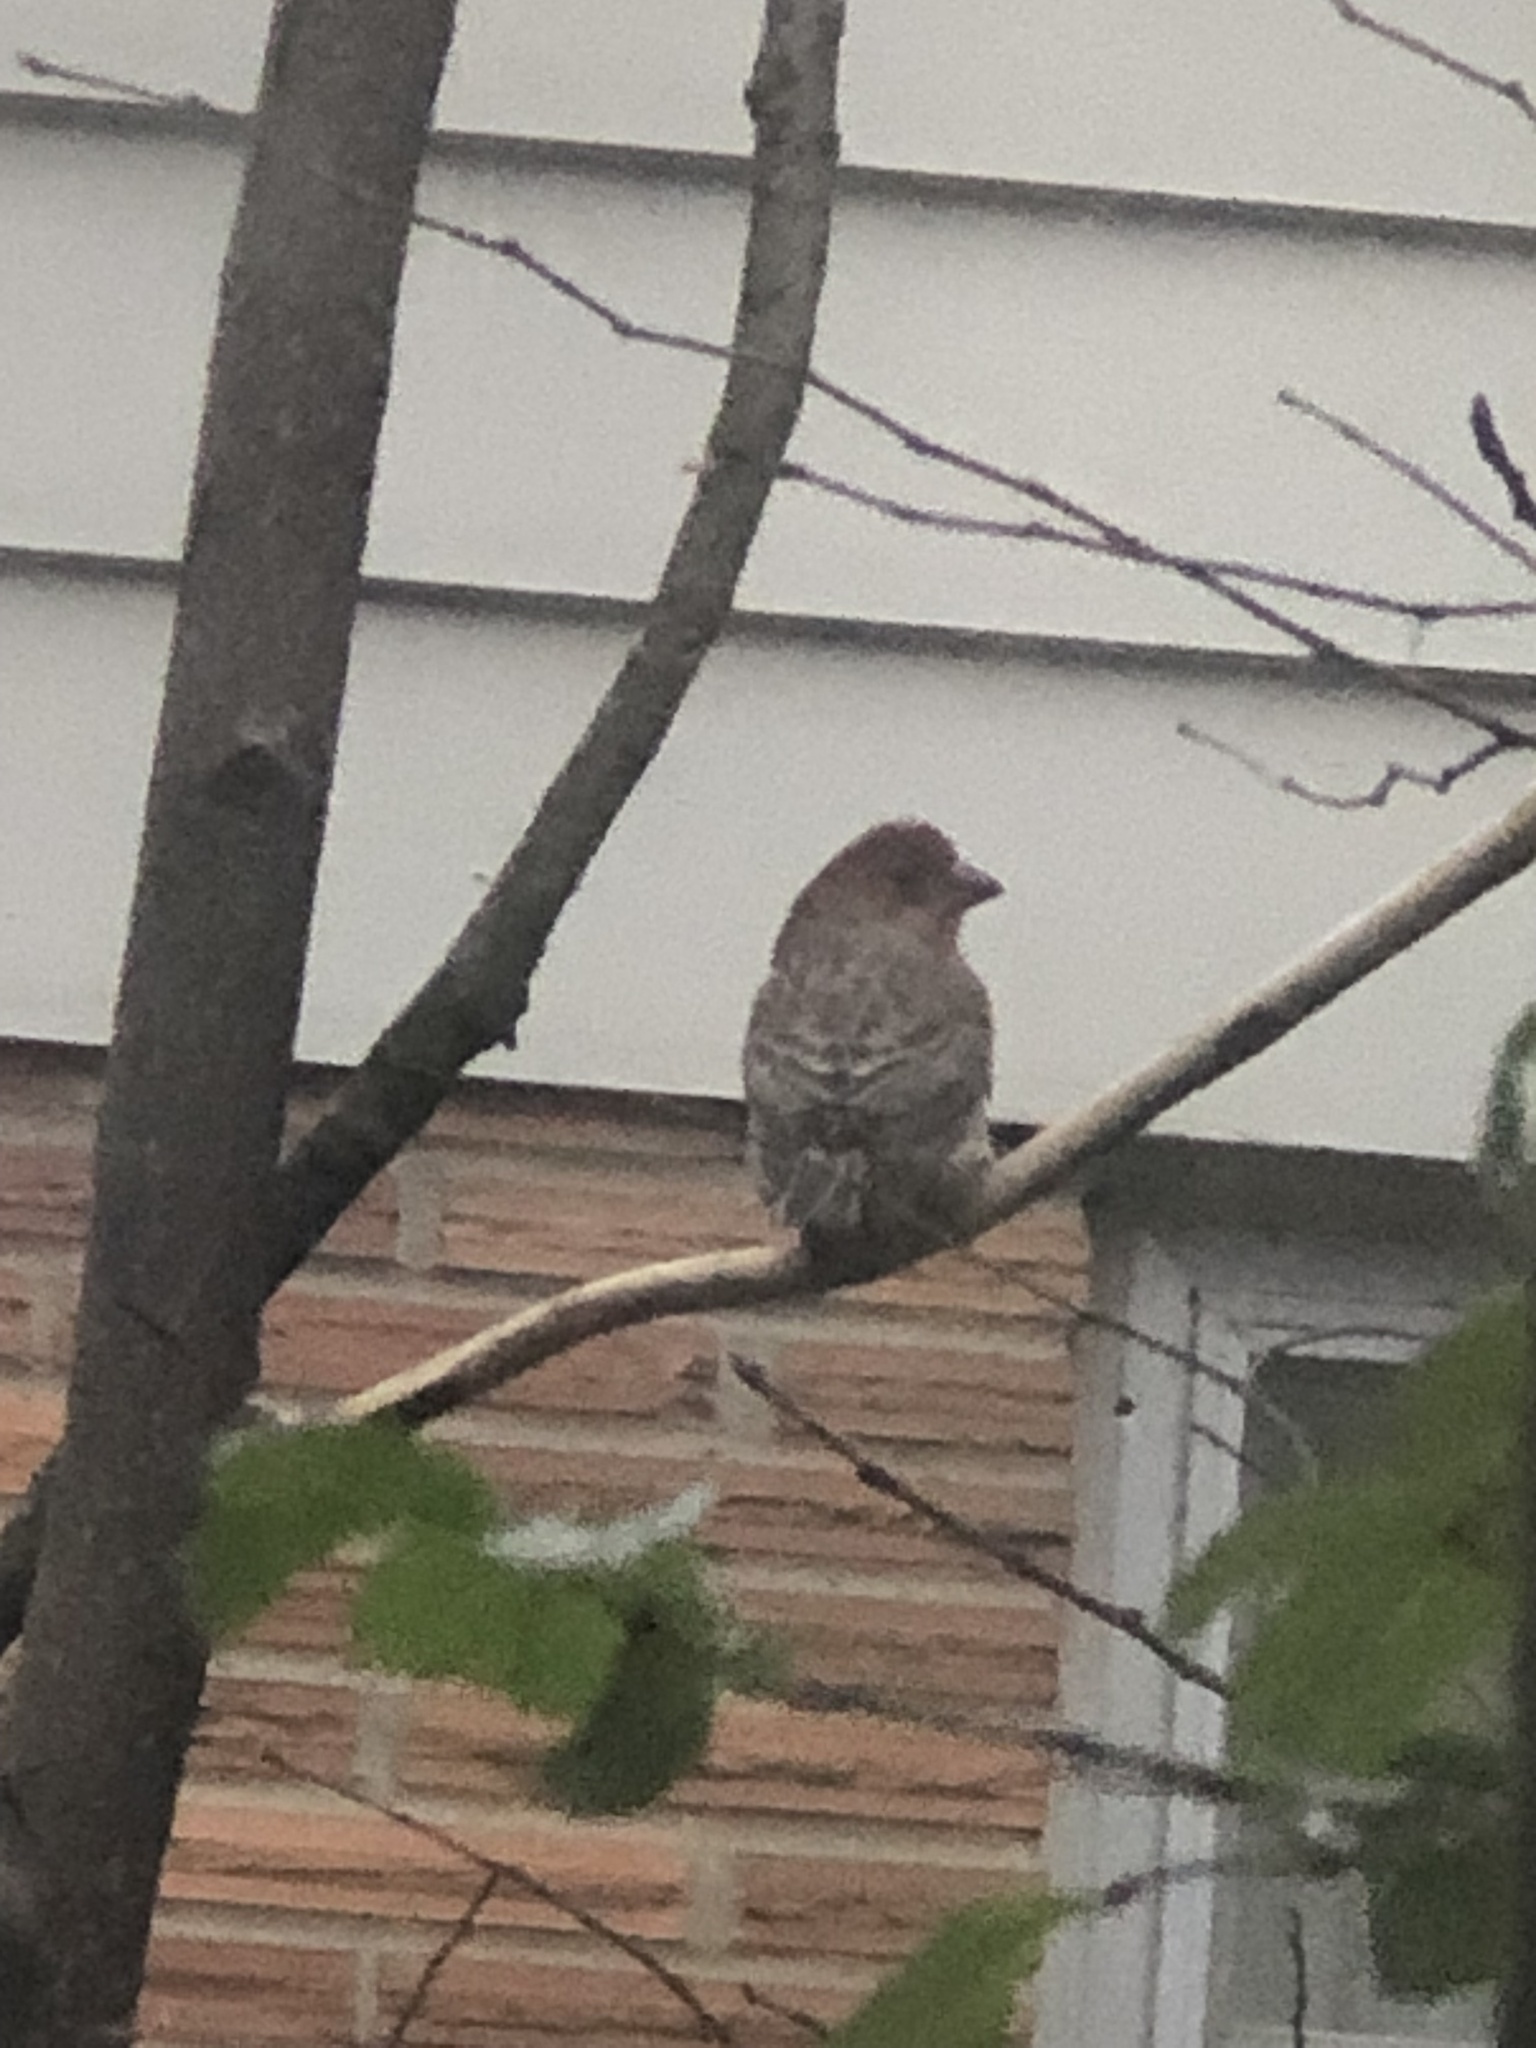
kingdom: Animalia
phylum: Chordata
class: Aves
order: Passeriformes
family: Fringillidae
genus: Haemorhous
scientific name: Haemorhous mexicanus
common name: House finch
